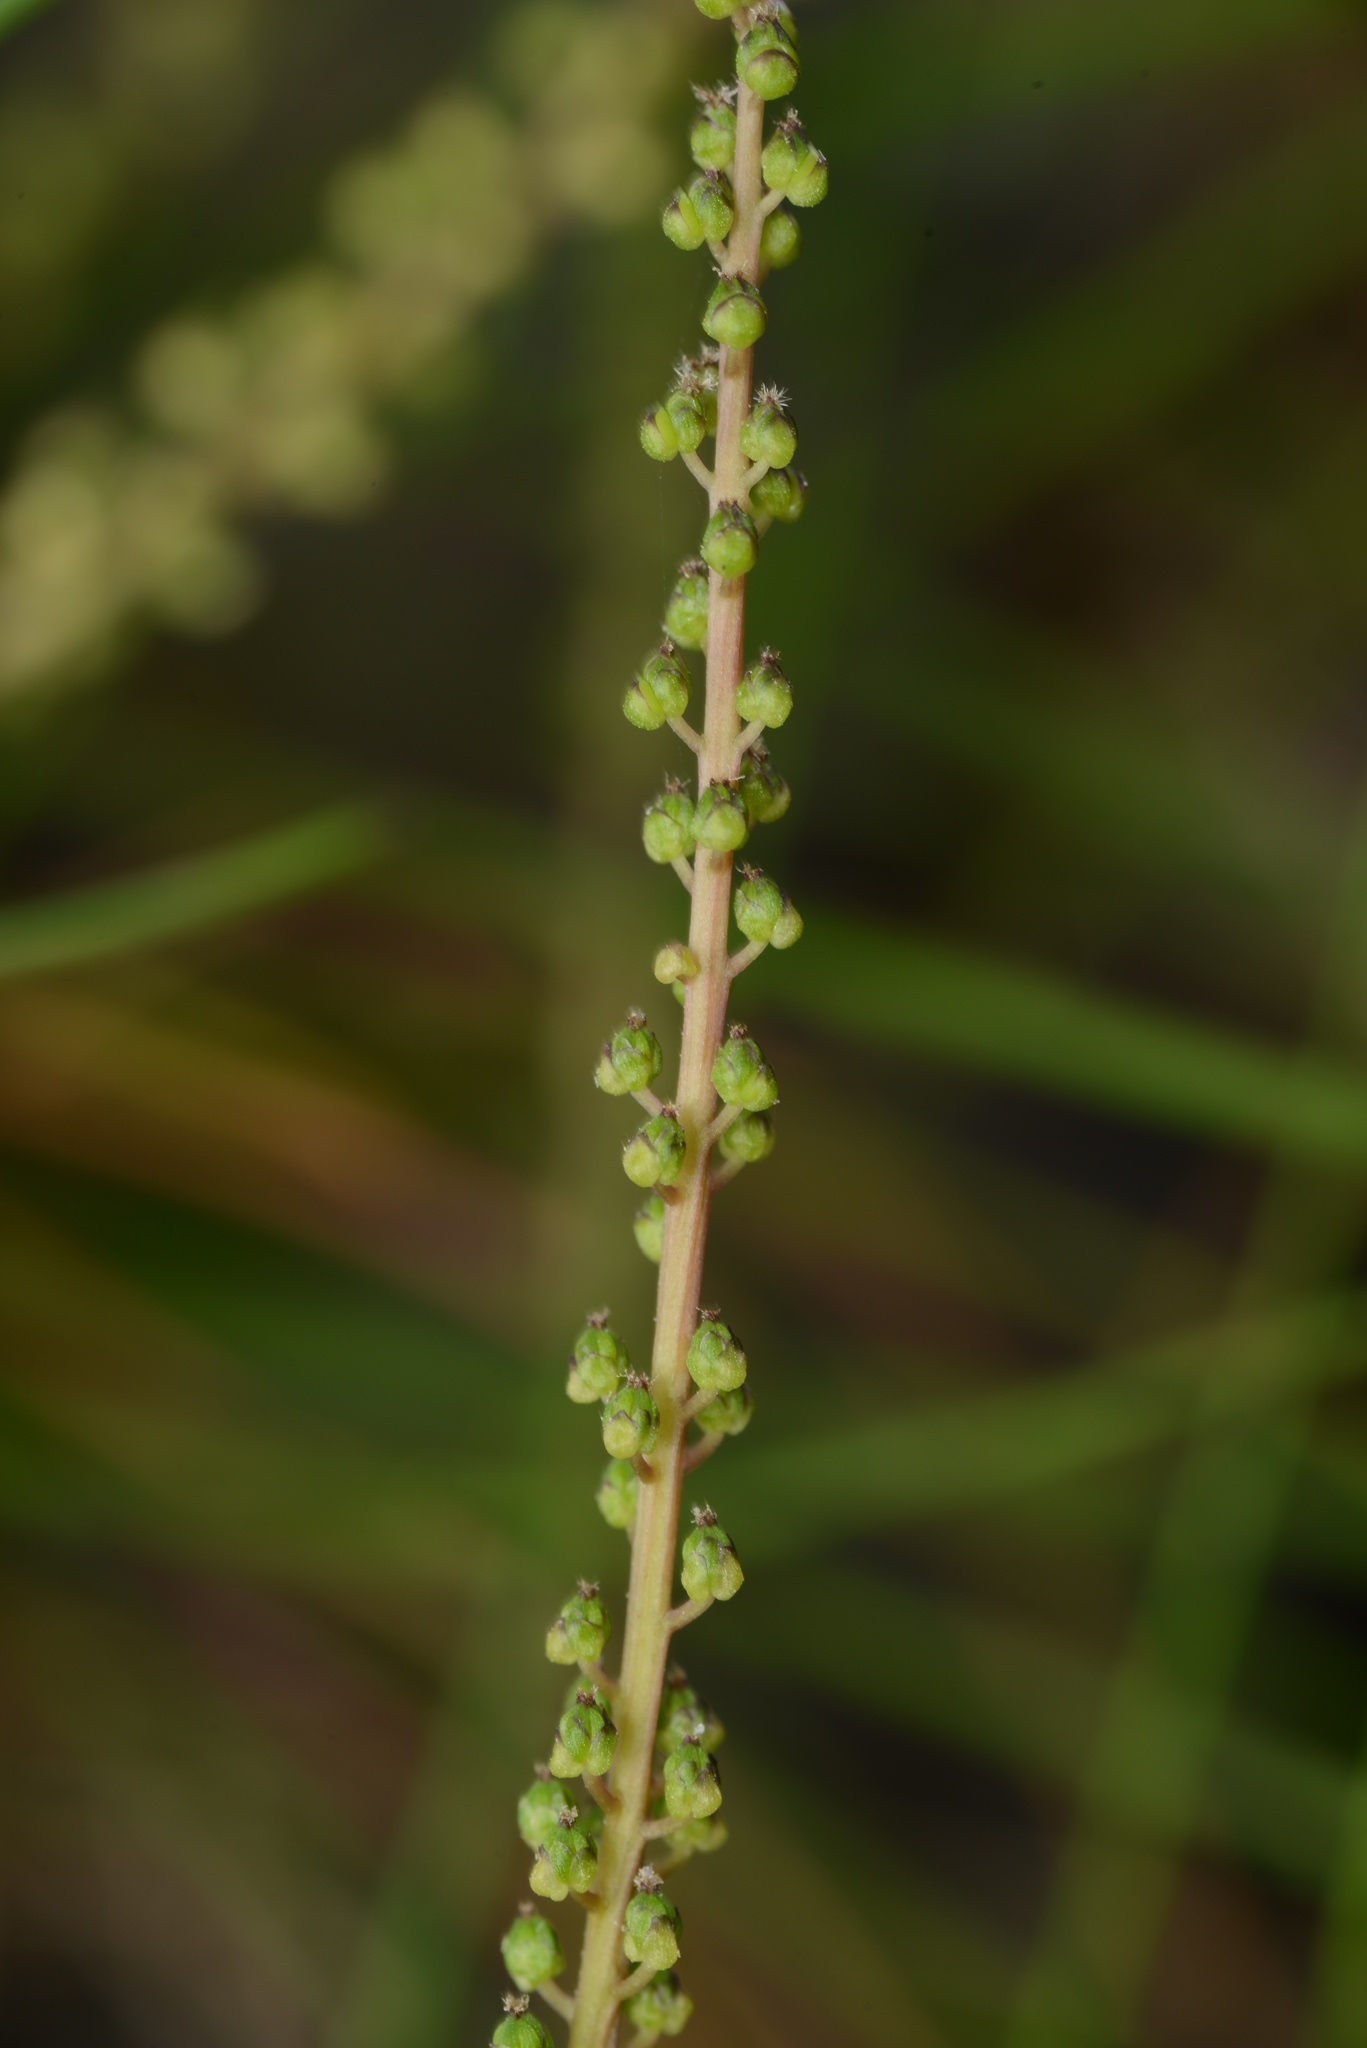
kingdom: Plantae
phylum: Tracheophyta
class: Liliopsida
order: Alismatales
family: Juncaginaceae
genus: Triglochin
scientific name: Triglochin striata
